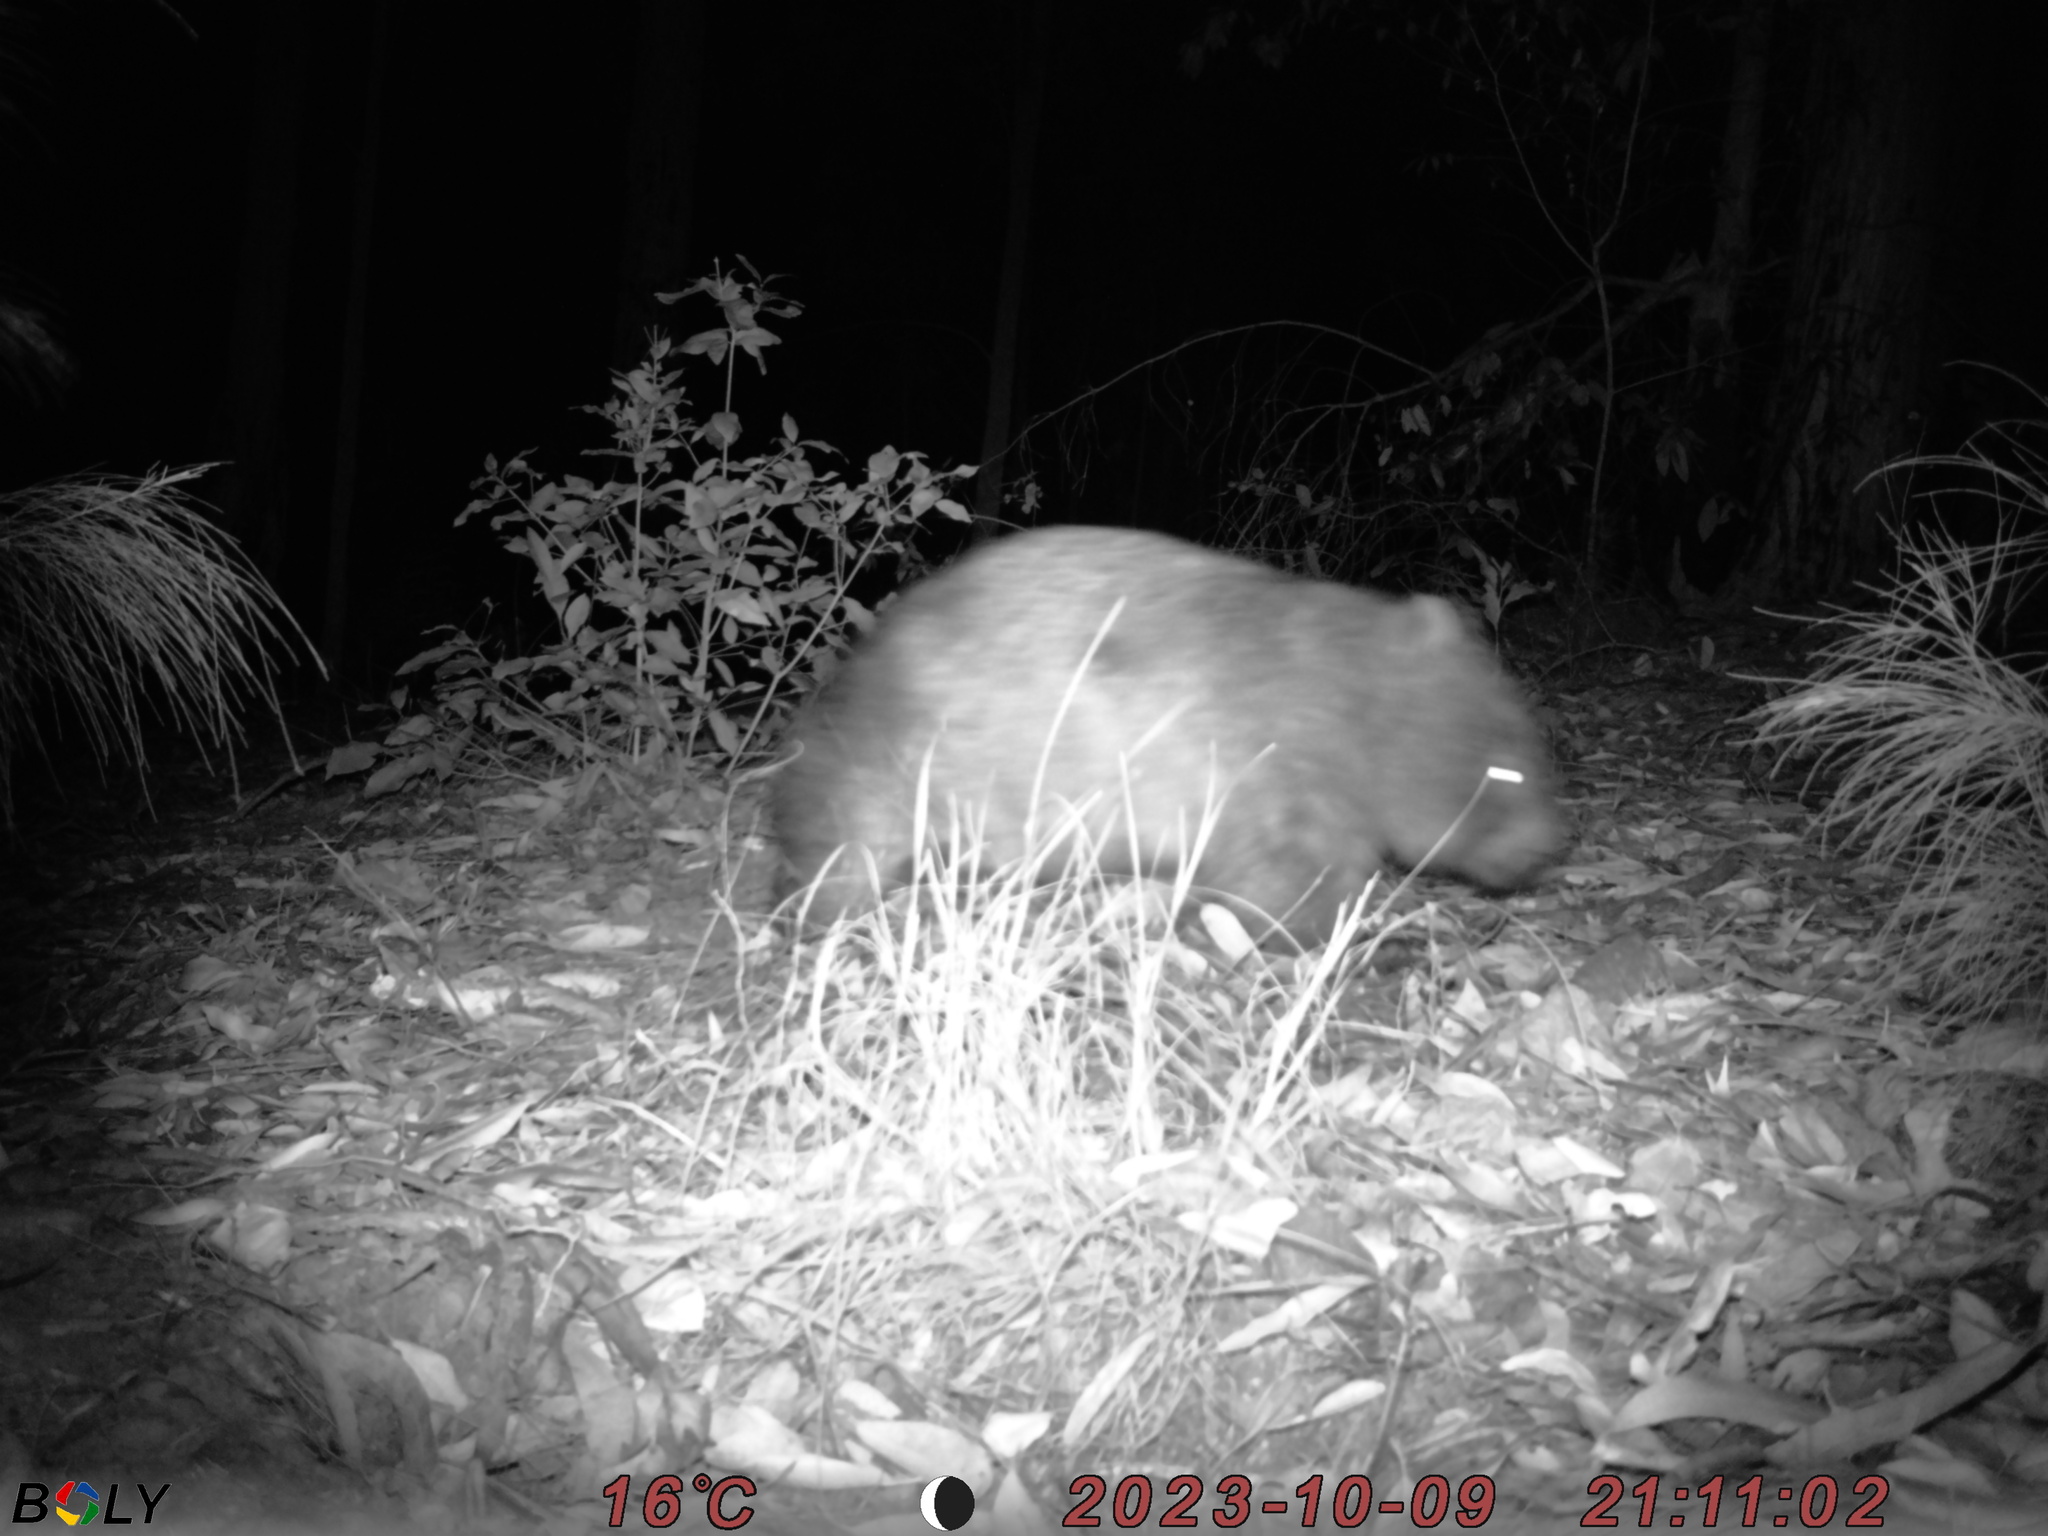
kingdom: Animalia
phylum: Chordata
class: Mammalia
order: Diprotodontia
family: Vombatidae
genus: Vombatus
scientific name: Vombatus ursinus
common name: Common wombat
